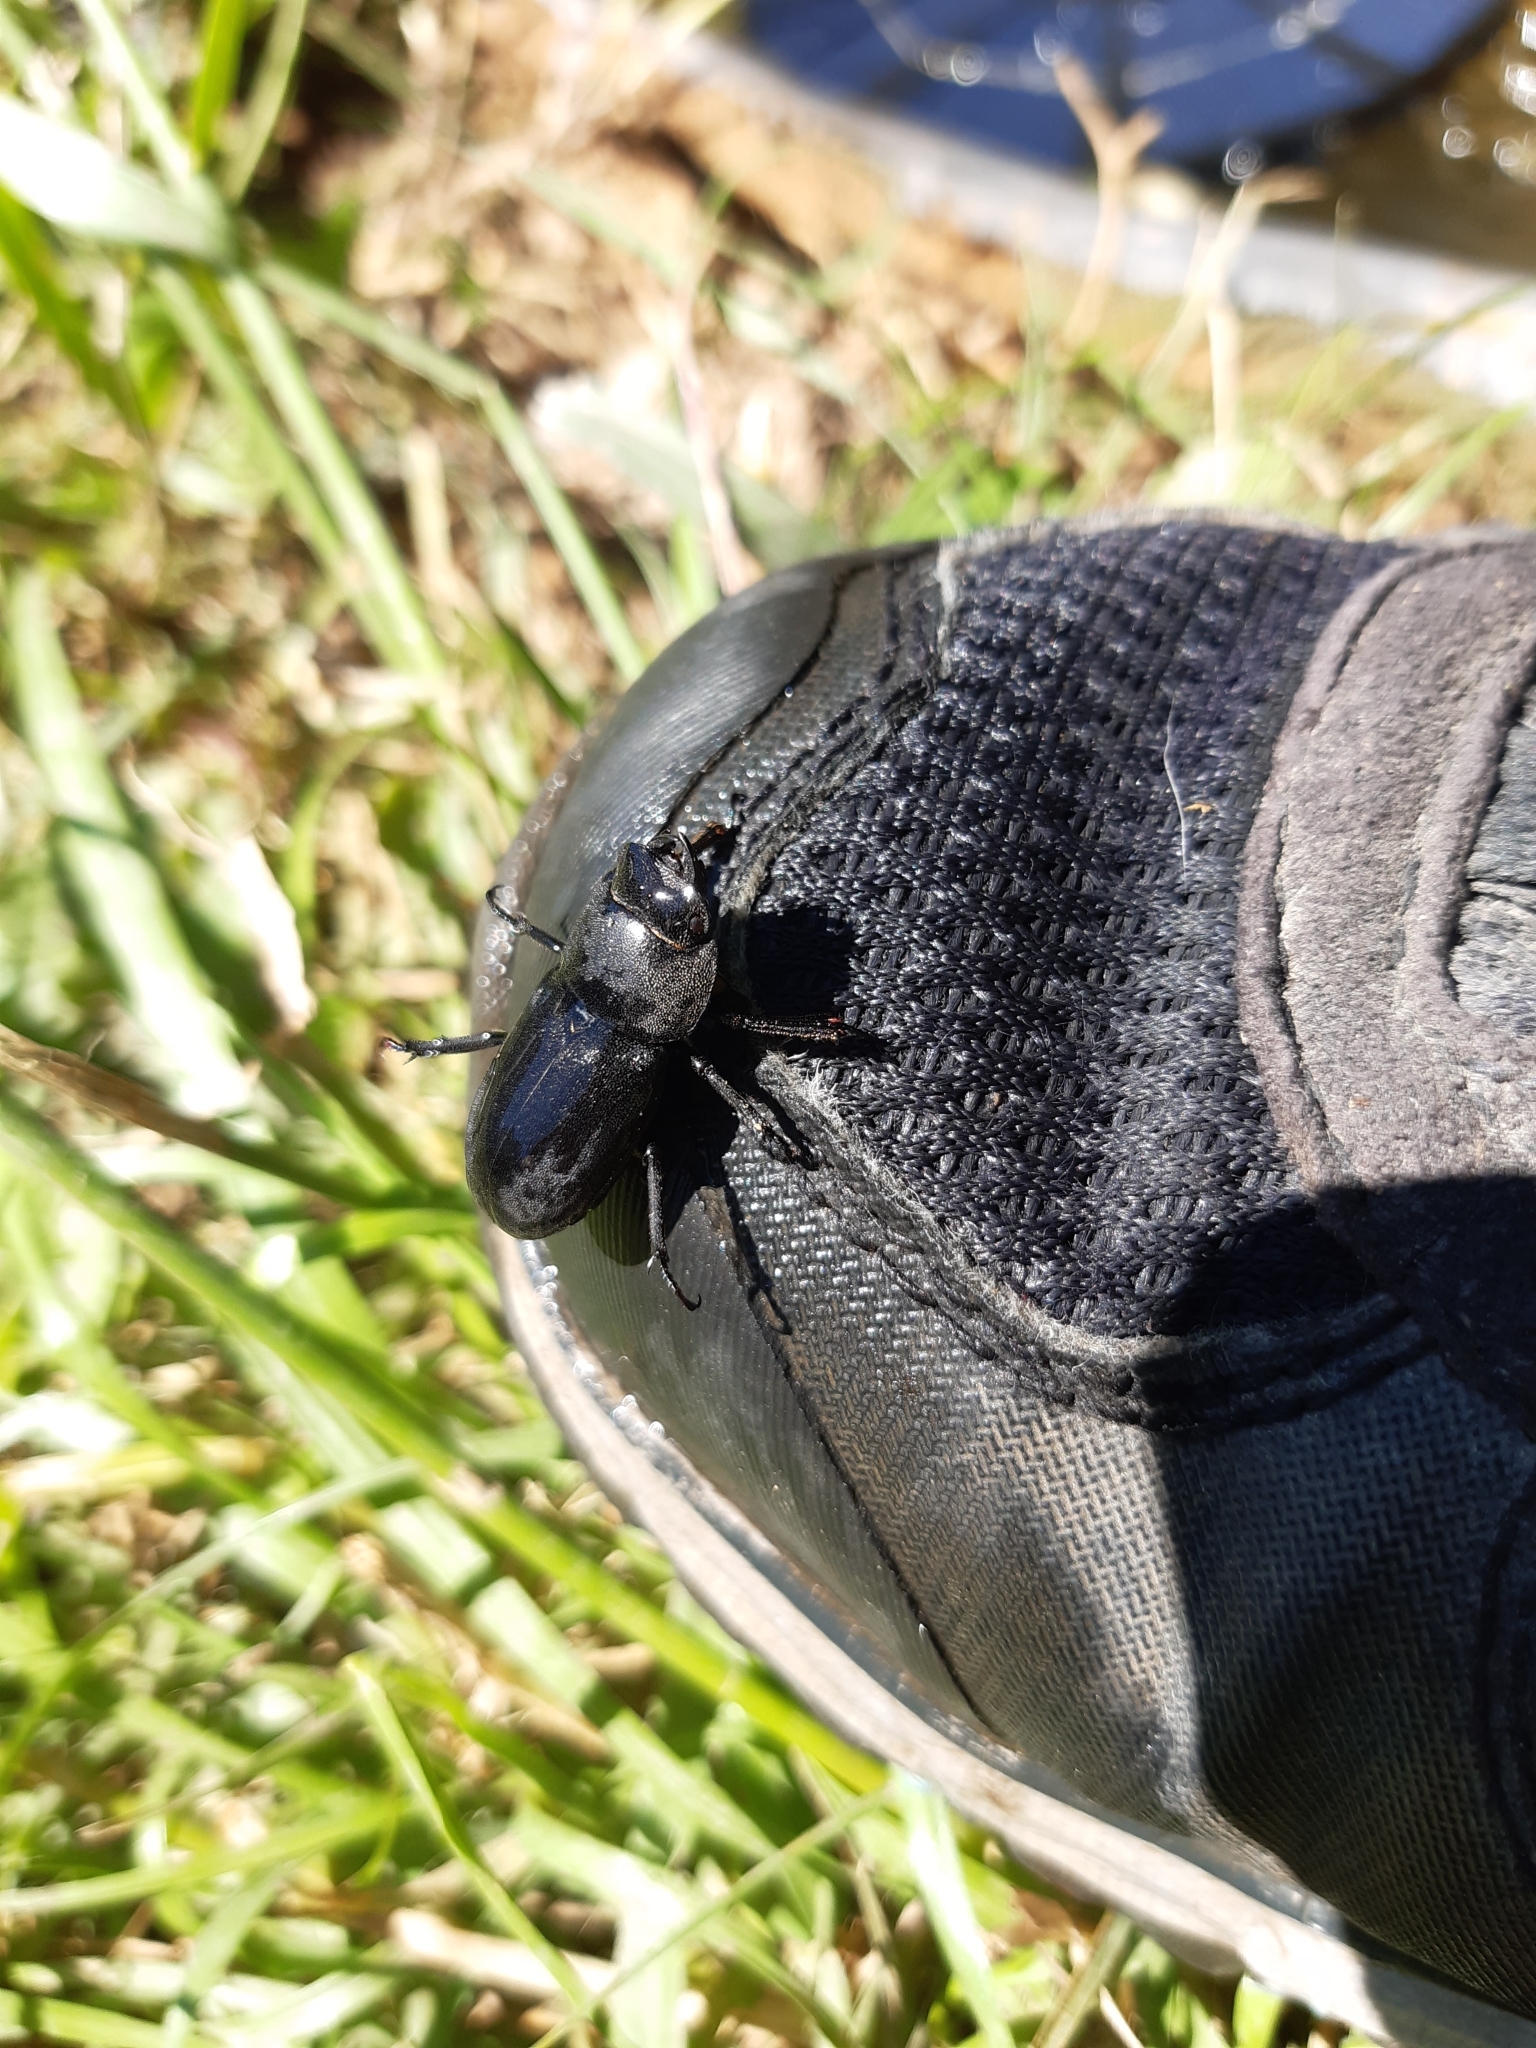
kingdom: Animalia
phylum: Arthropoda
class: Insecta
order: Coleoptera
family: Lucanidae
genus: Dorcus
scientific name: Dorcus parallelipipedus
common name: Lesser stag beetle
